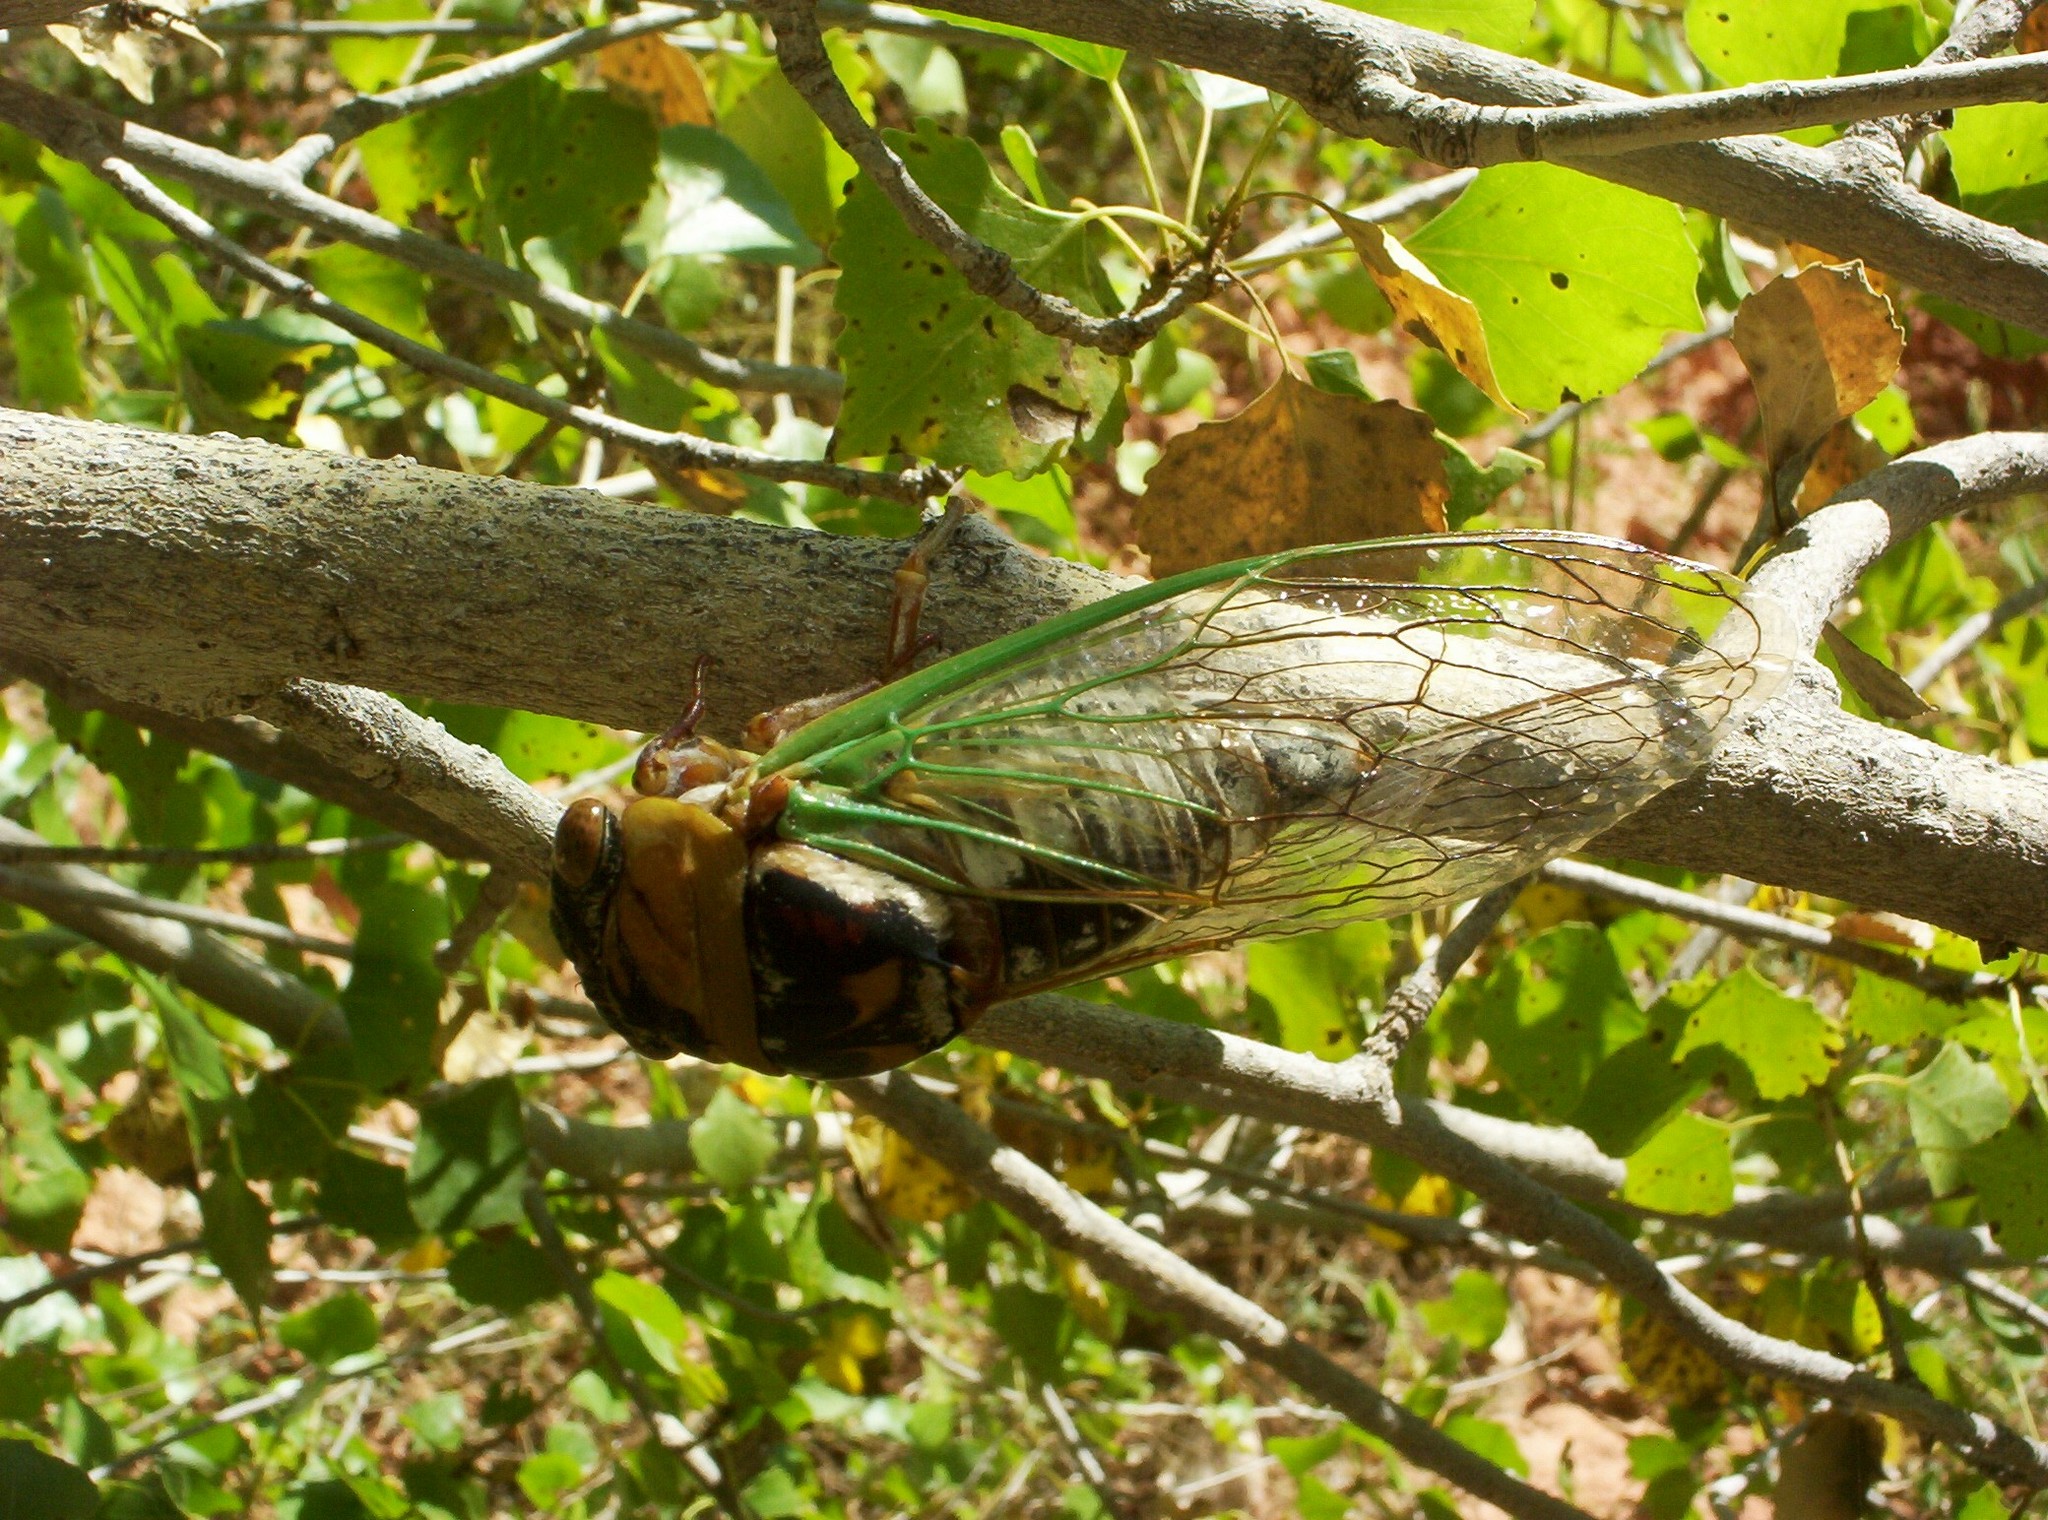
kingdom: Animalia
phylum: Arthropoda
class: Insecta
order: Hemiptera
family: Cicadidae
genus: Megatibicen
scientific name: Megatibicen cultriformis
